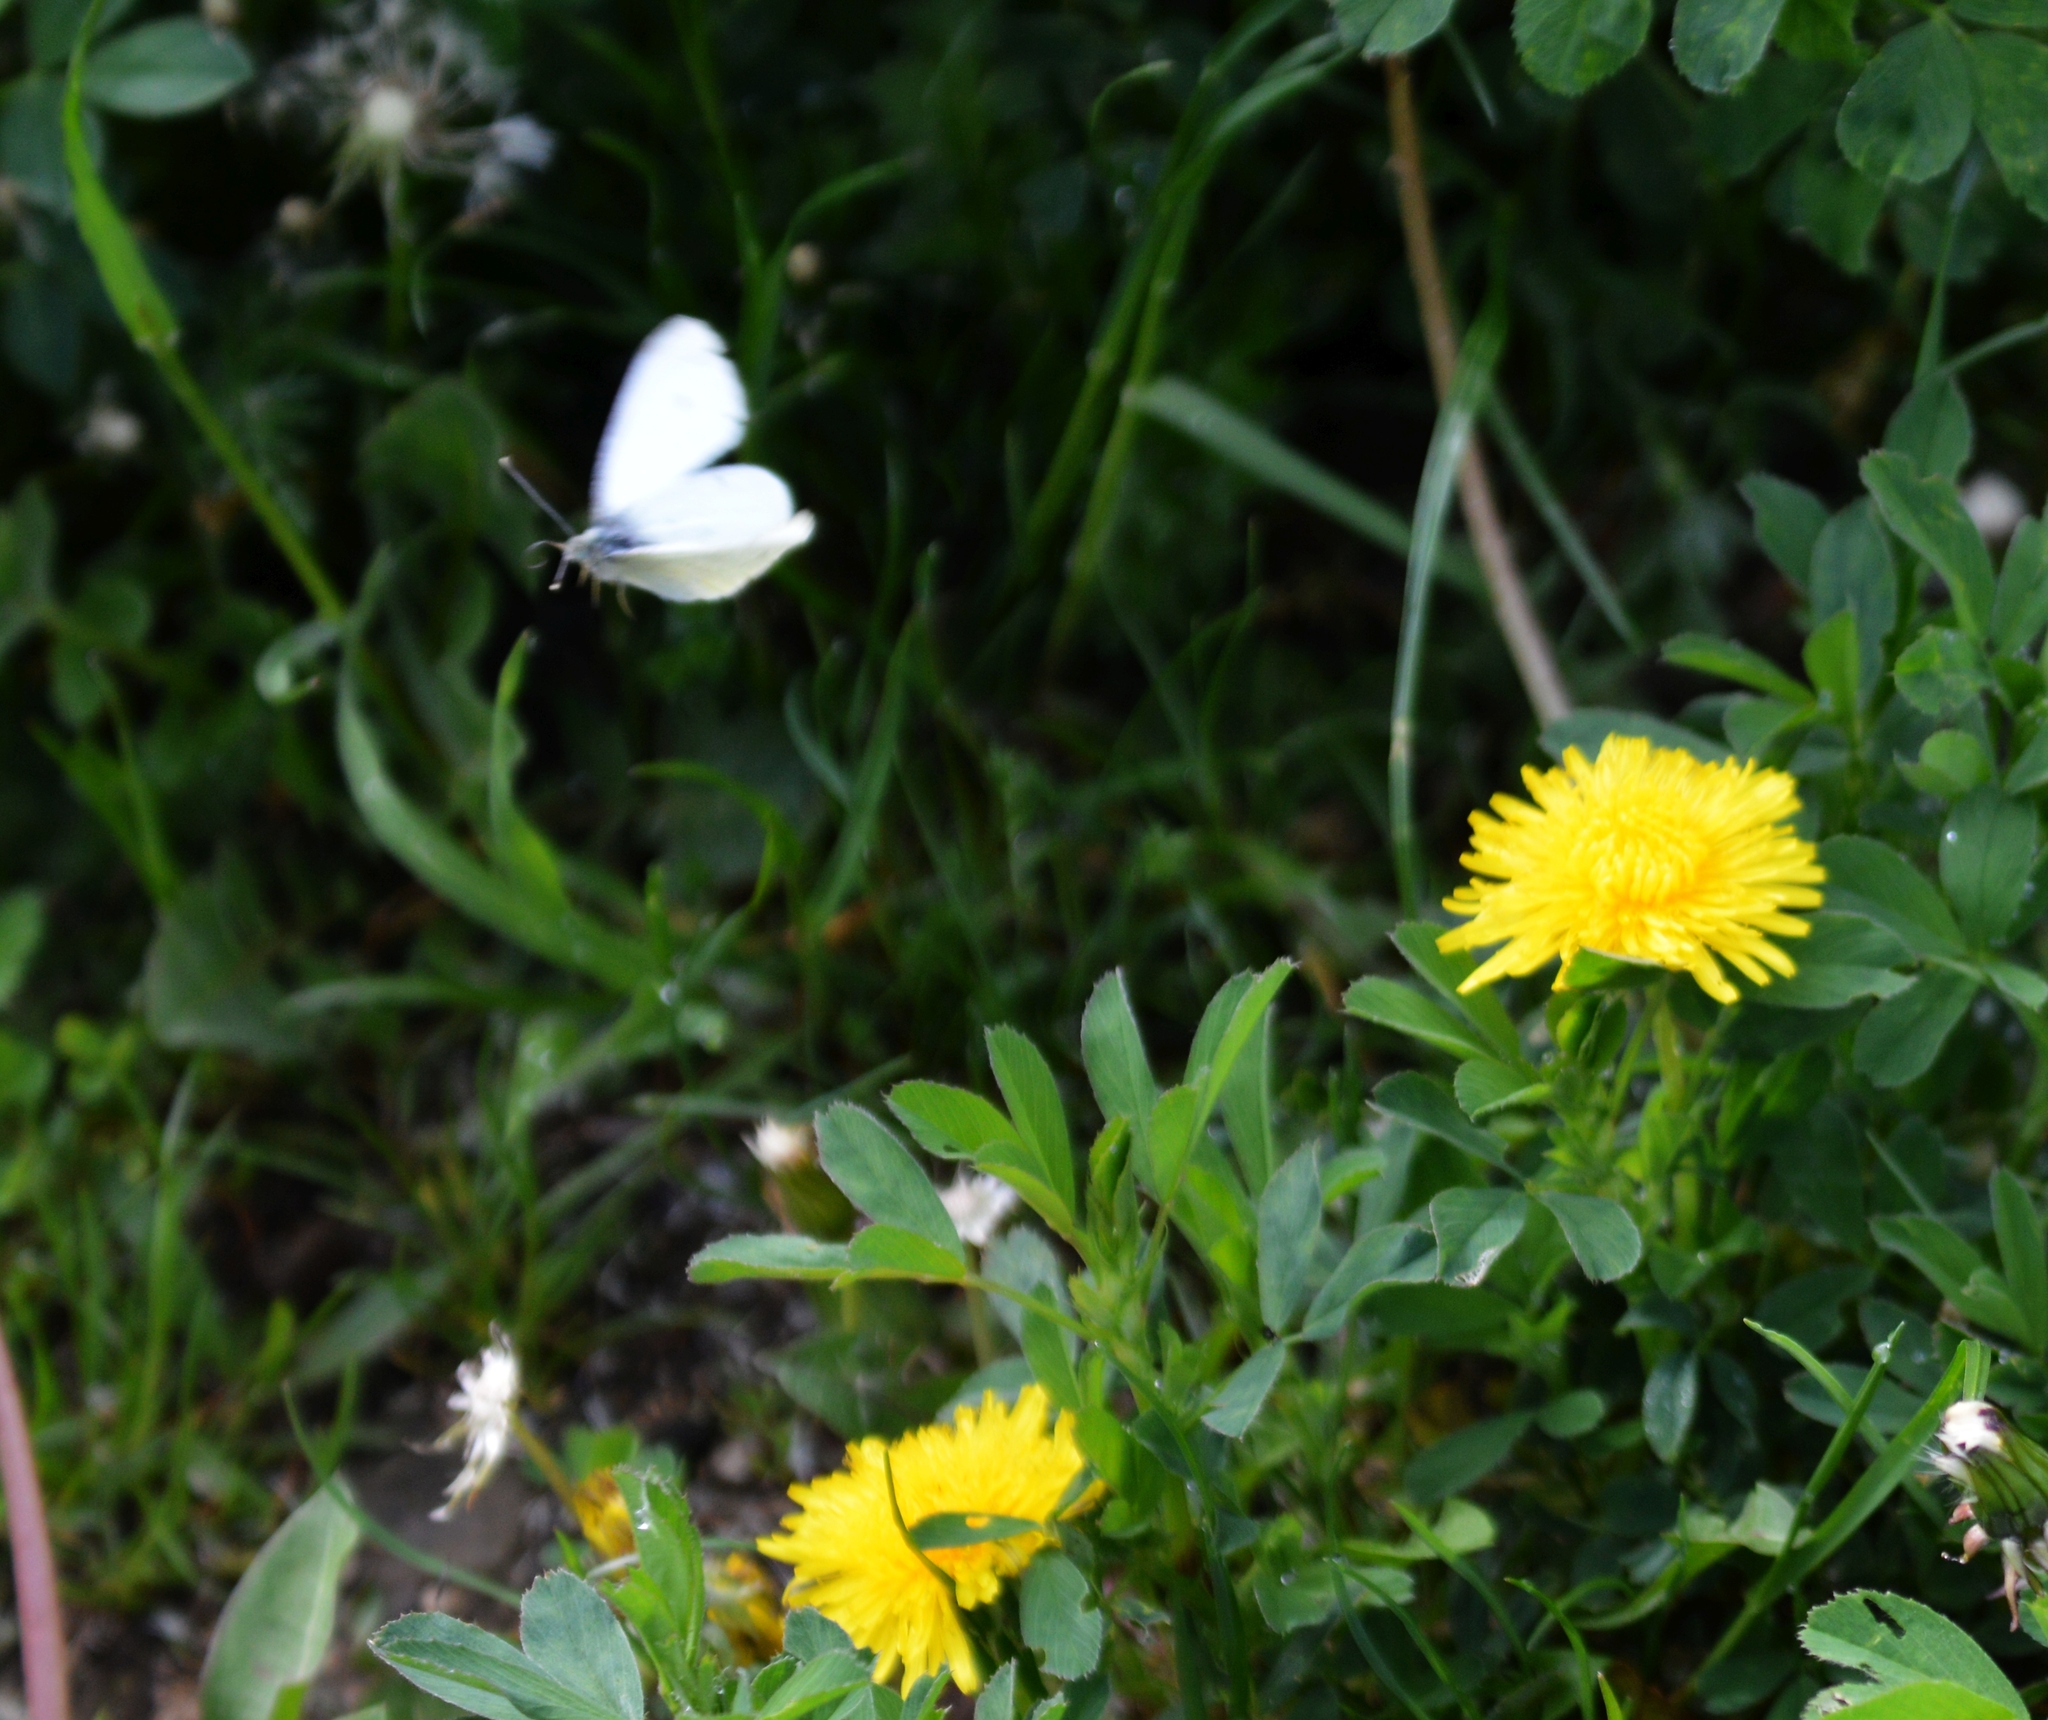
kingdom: Animalia
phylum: Arthropoda
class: Insecta
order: Lepidoptera
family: Pieridae
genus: Pieris
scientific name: Pieris
